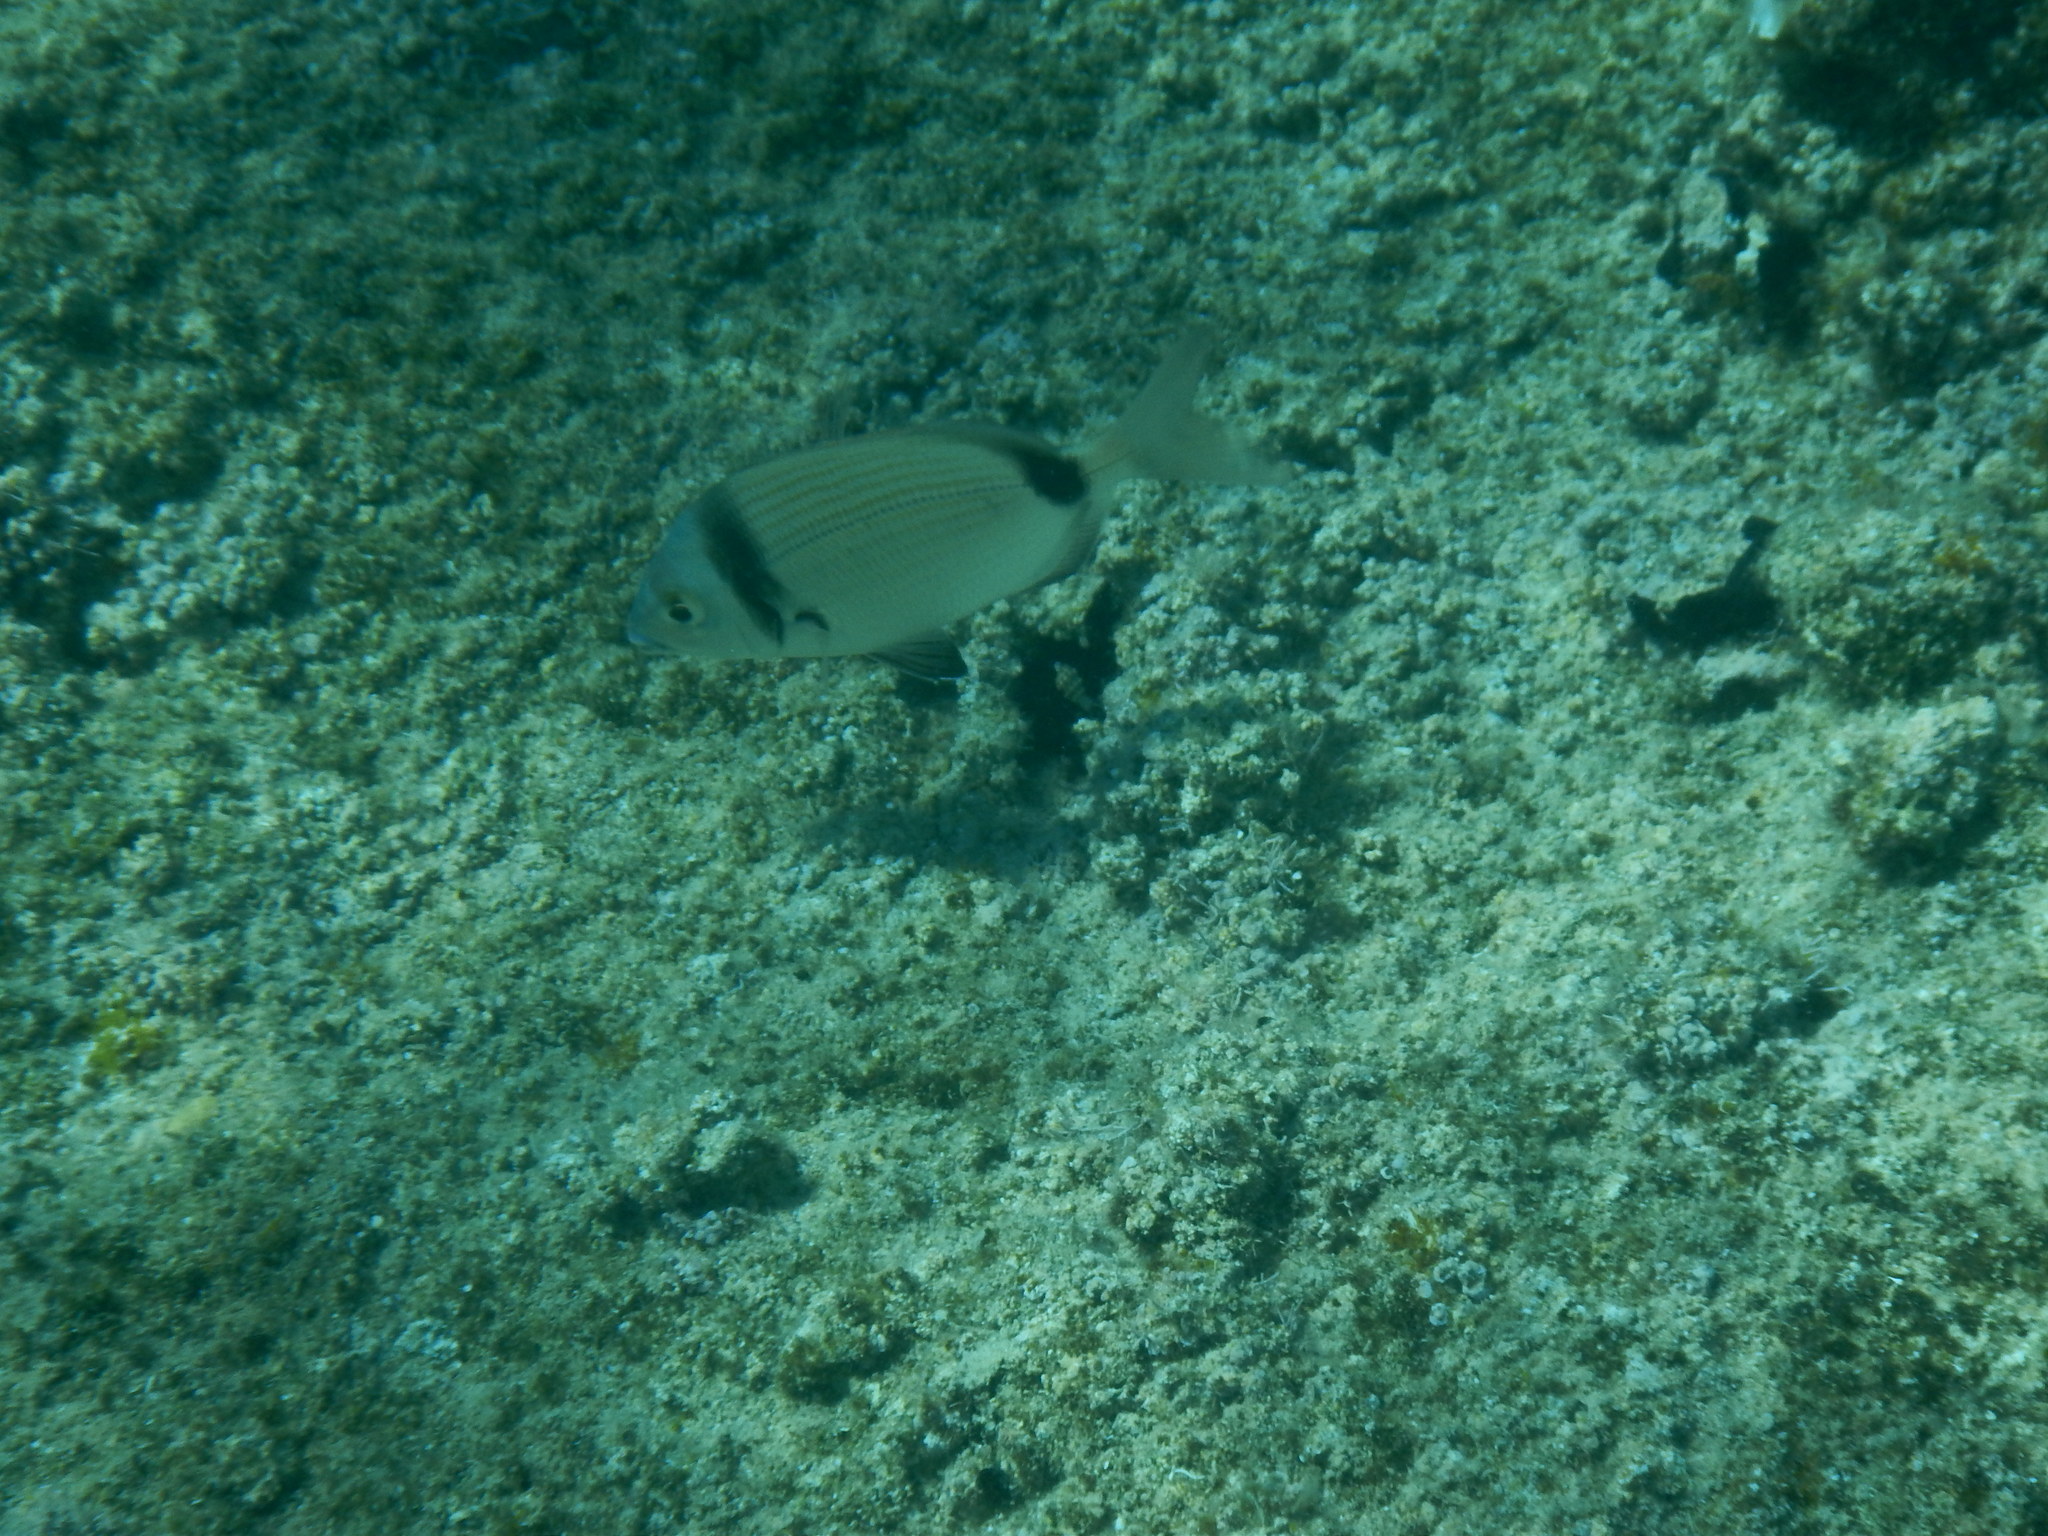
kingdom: Animalia
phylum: Chordata
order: Perciformes
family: Sparidae
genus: Diplodus
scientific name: Diplodus vulgaris
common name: Common two-banded seabream
